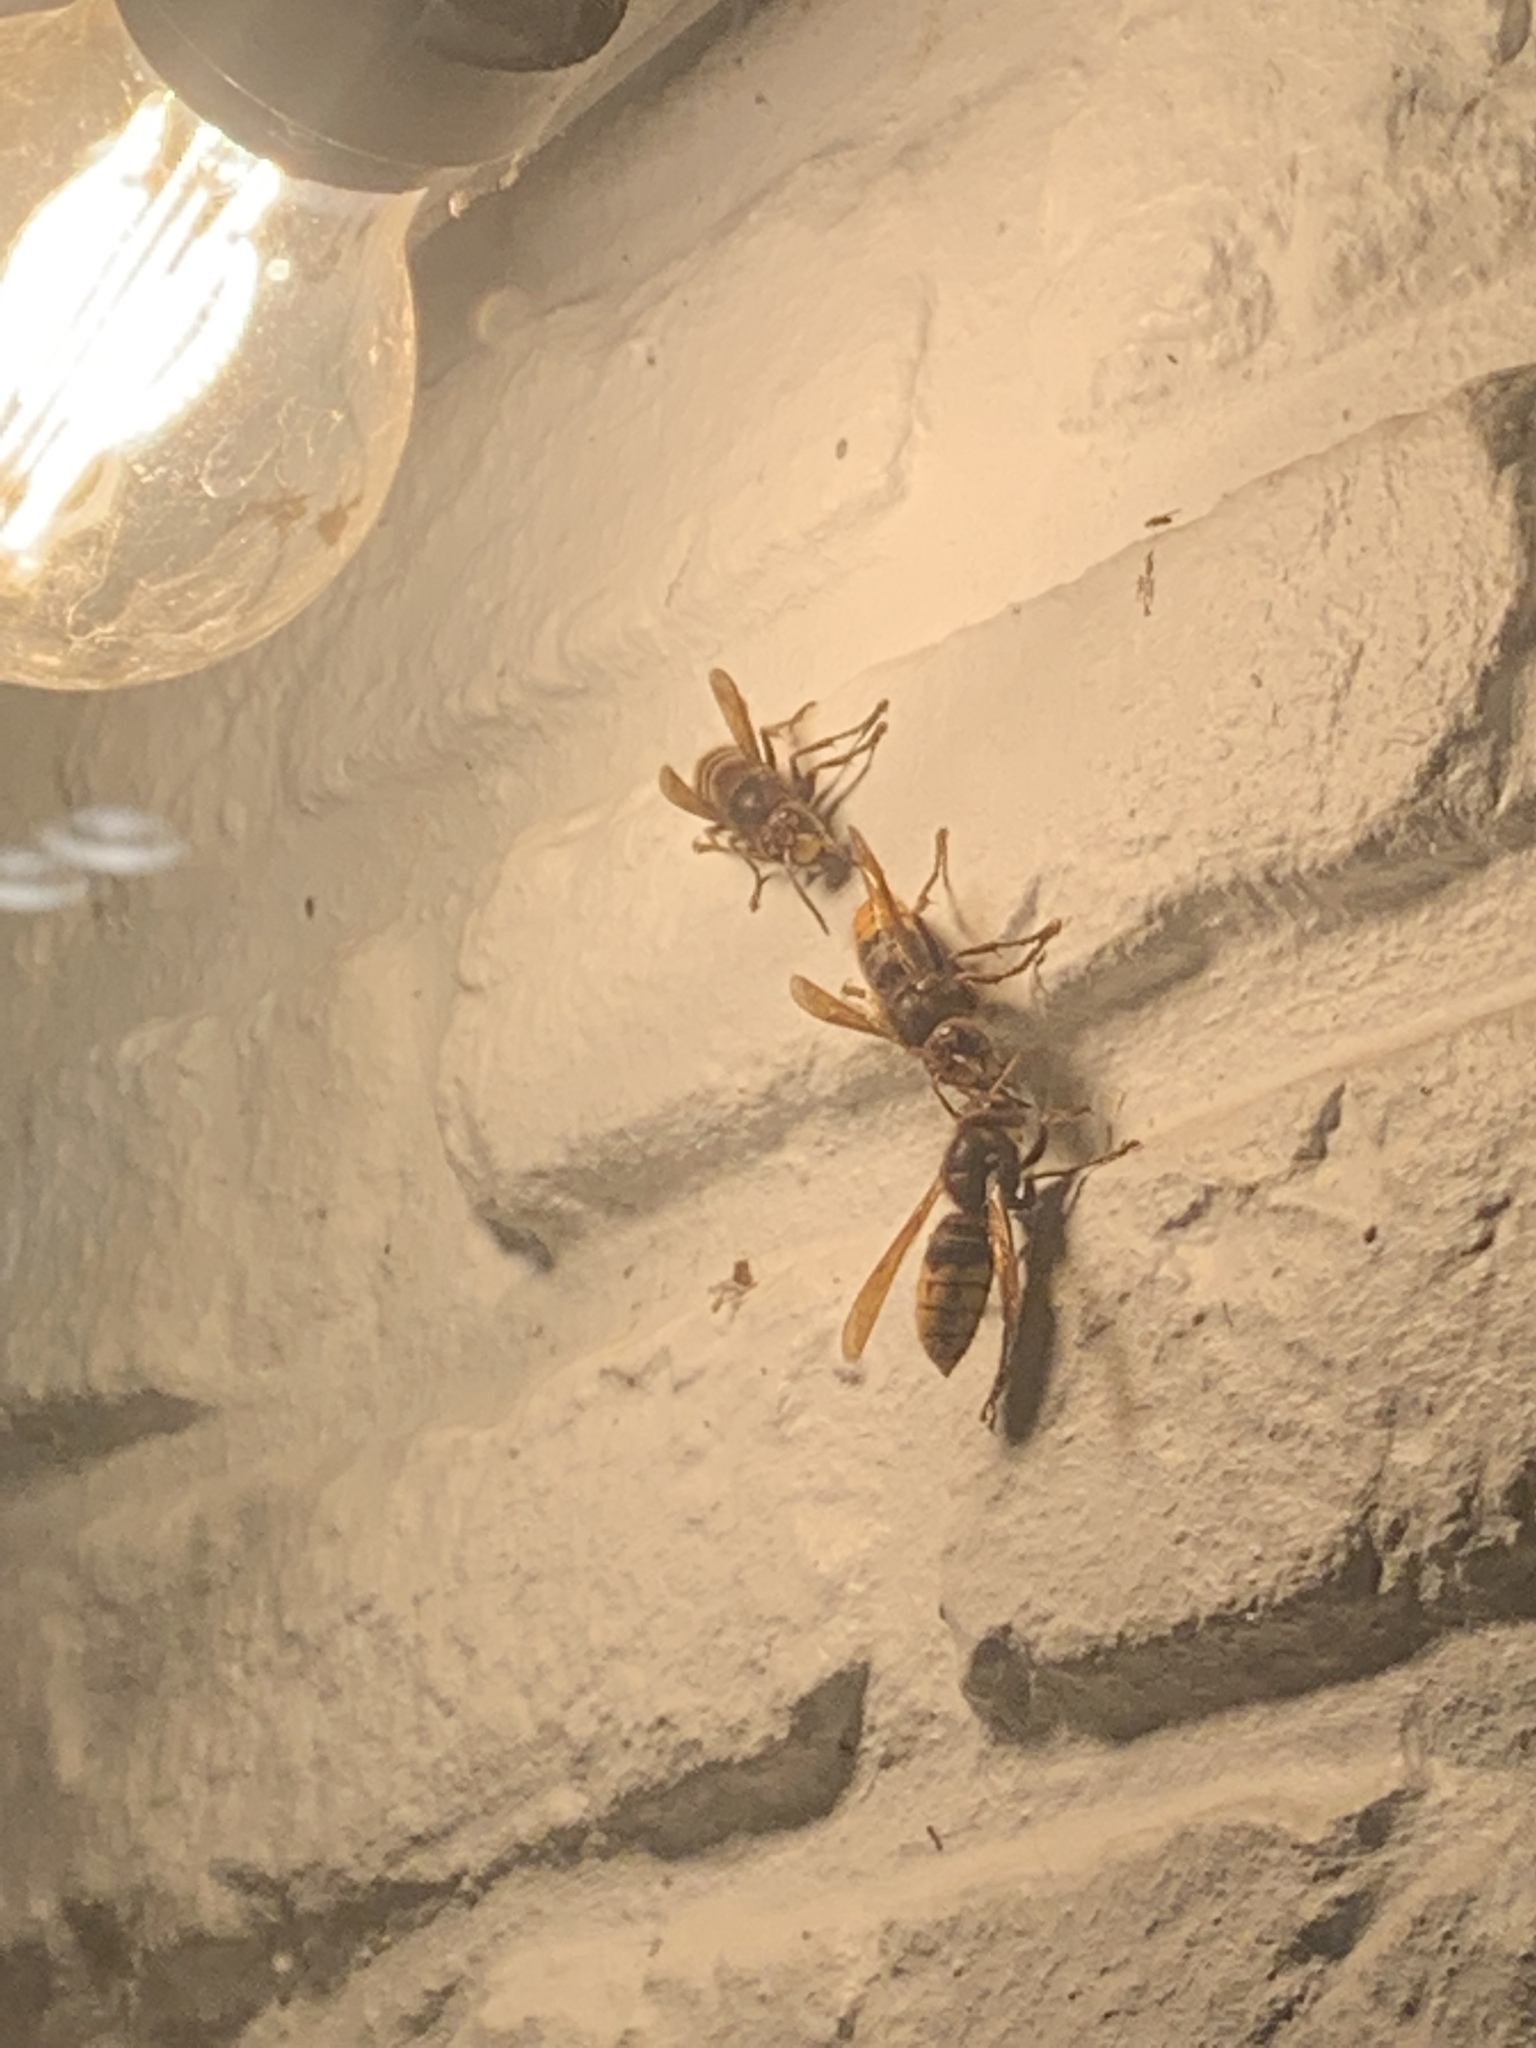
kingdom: Animalia
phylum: Arthropoda
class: Insecta
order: Hymenoptera
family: Vespidae
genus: Vespa
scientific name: Vespa crabro
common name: Hornet
